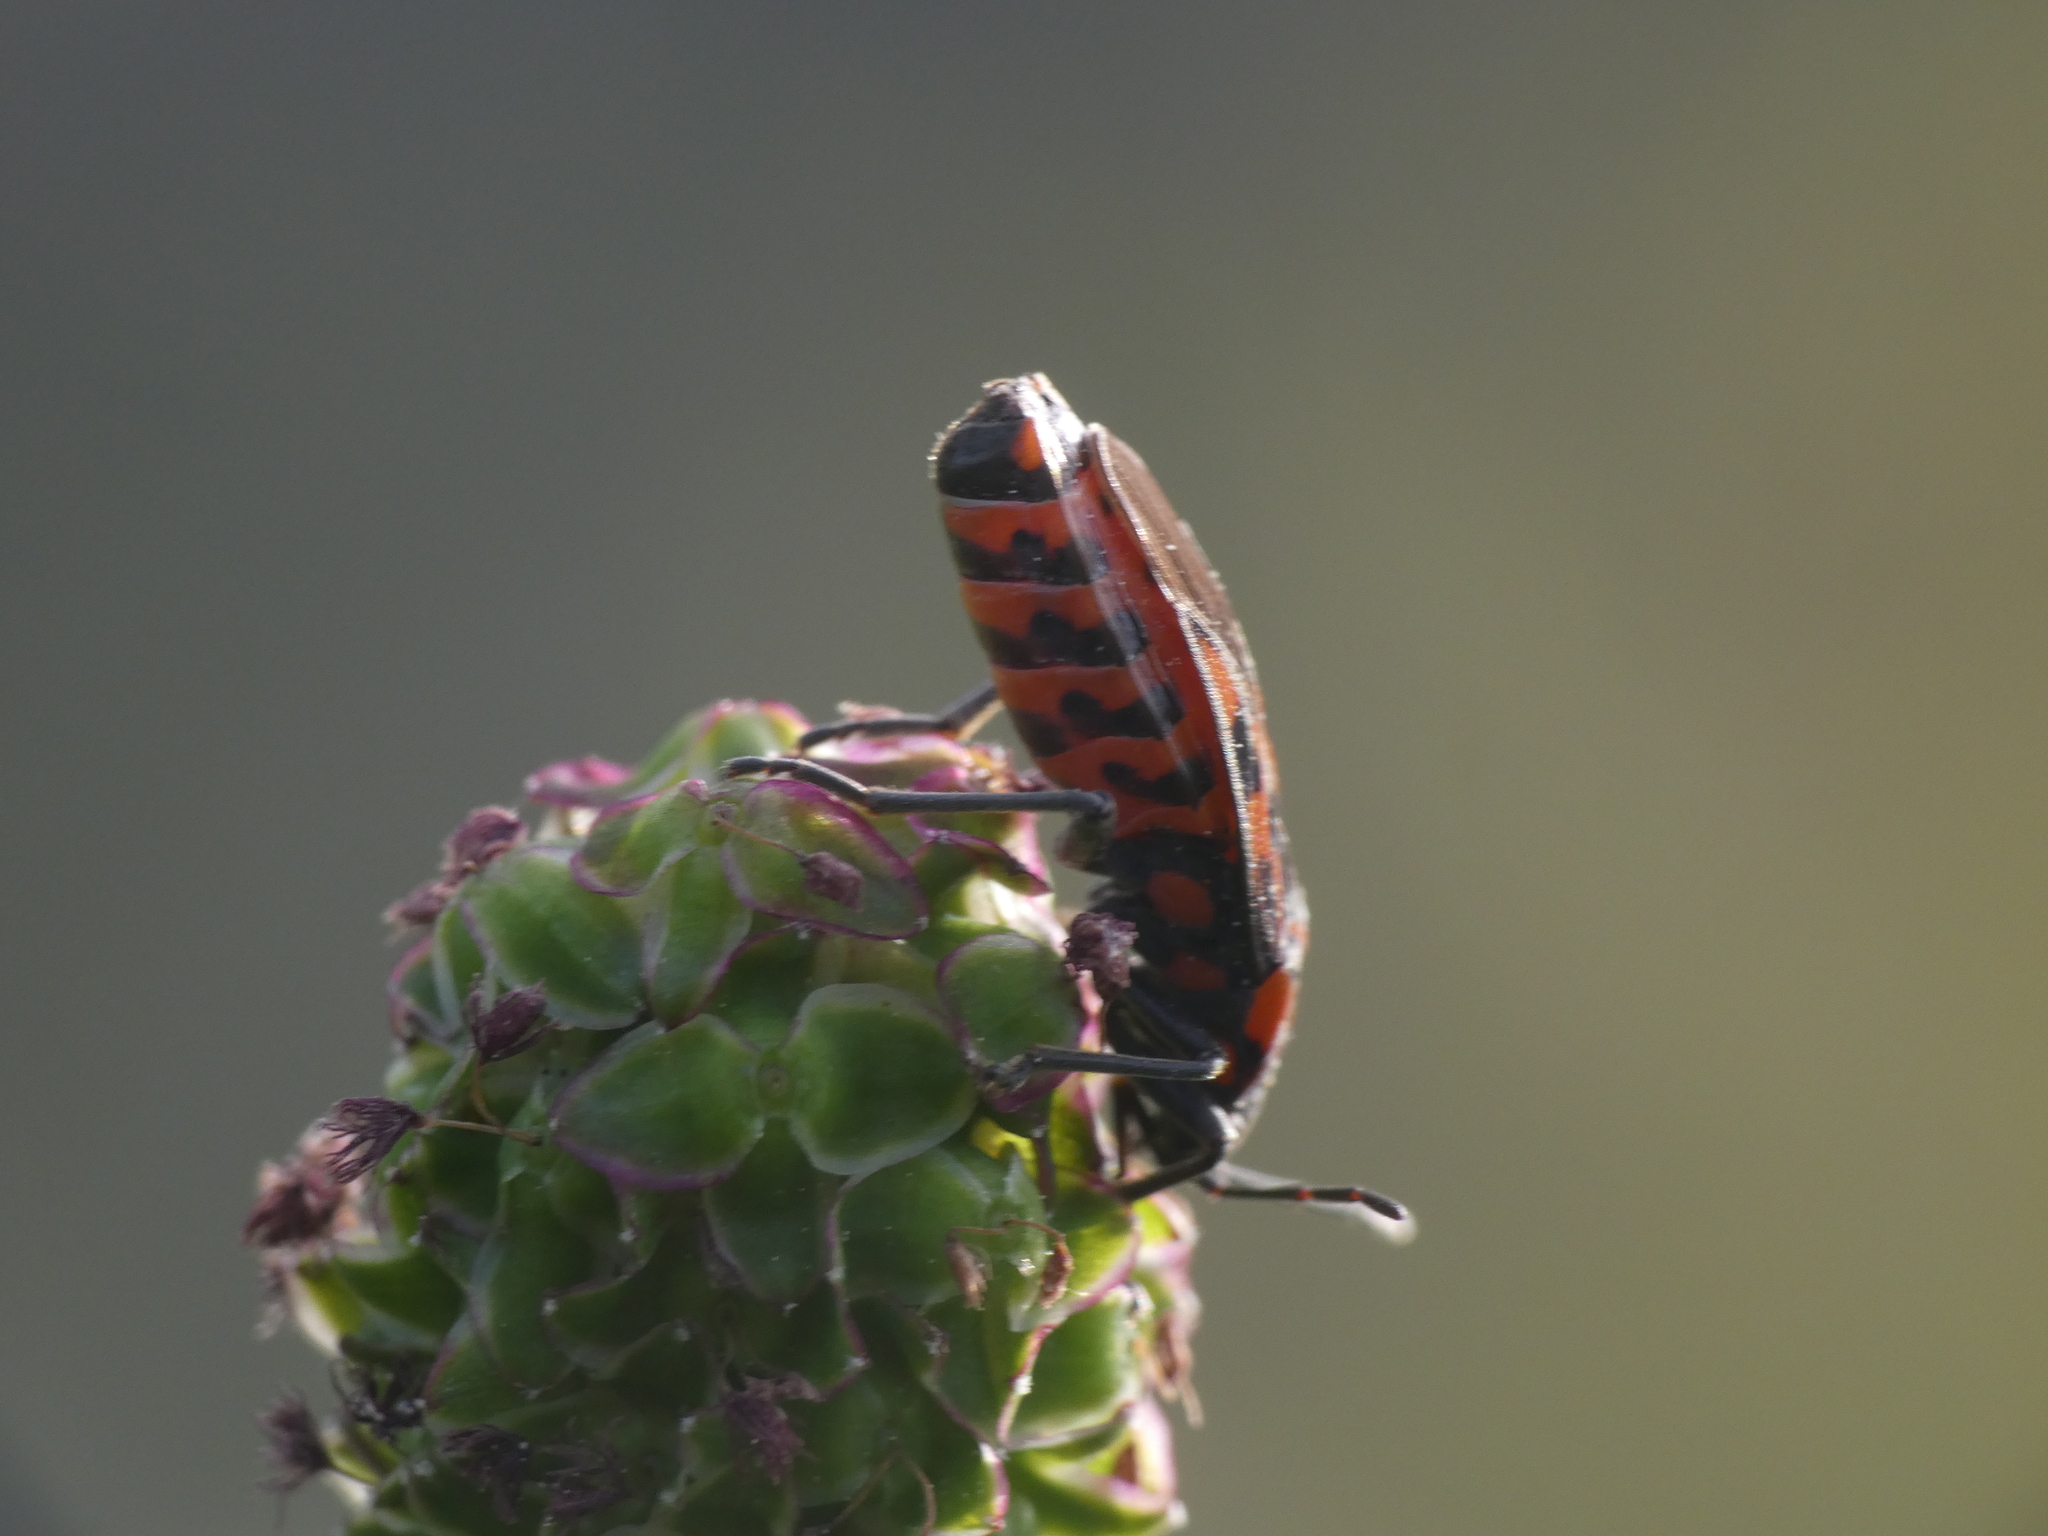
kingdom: Animalia
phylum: Arthropoda
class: Insecta
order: Hemiptera
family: Lygaeidae
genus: Spilostethus
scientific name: Spilostethus saxatilis
